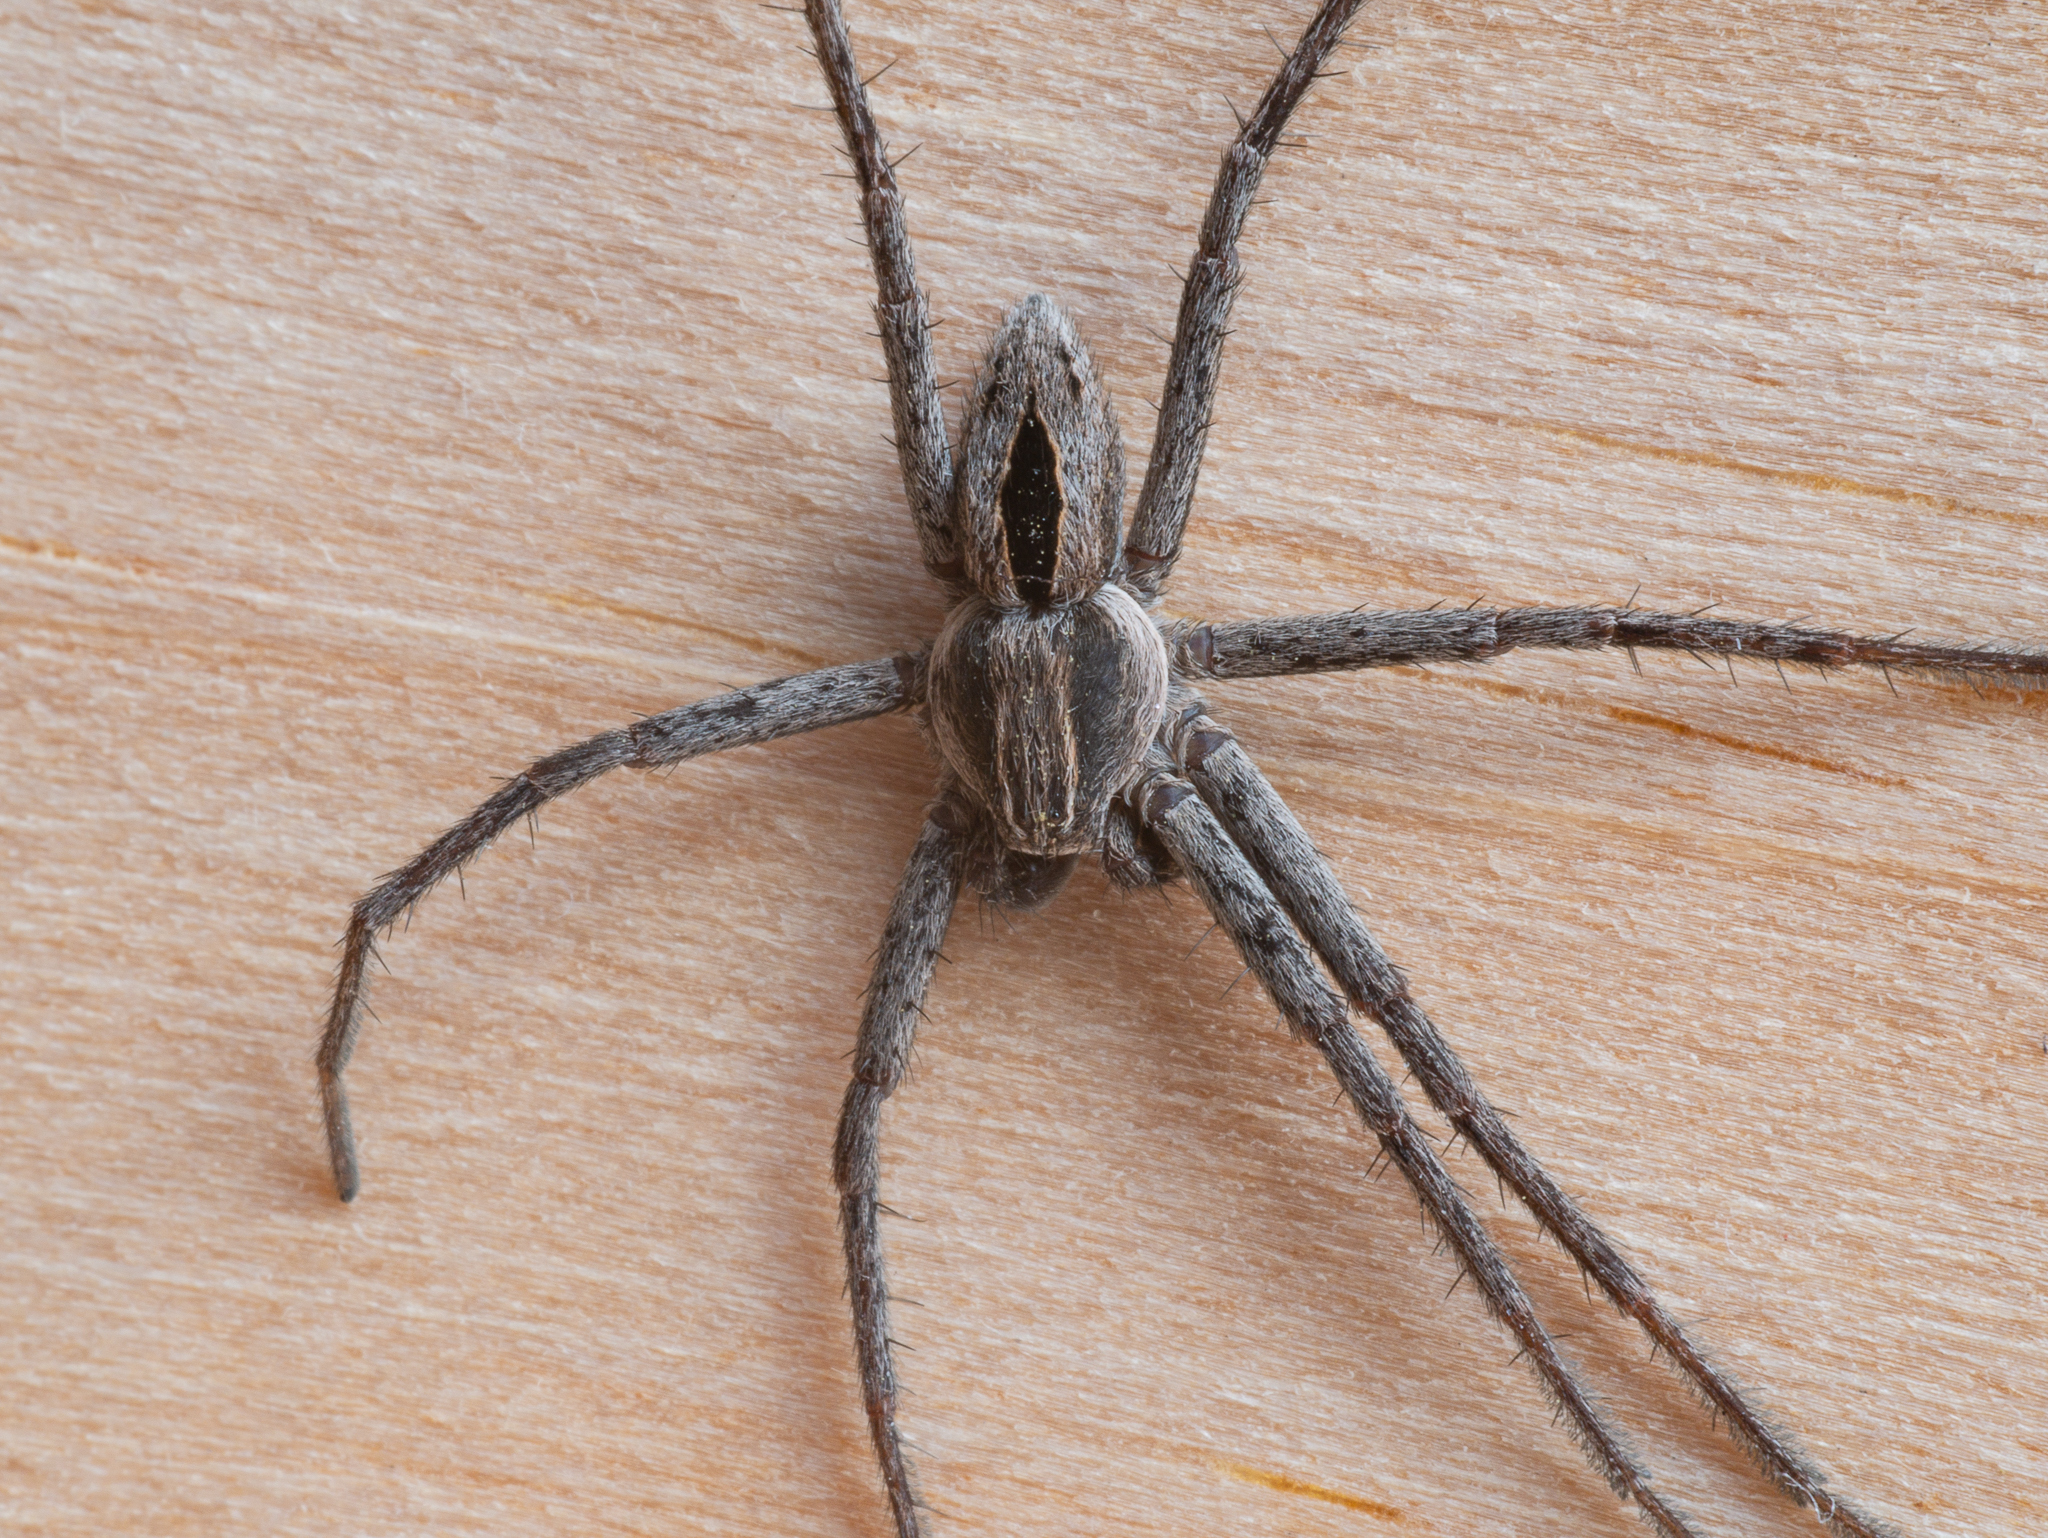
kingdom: Animalia
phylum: Arthropoda
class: Arachnida
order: Araneae
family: Philodromidae
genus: Thanatus
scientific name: Thanatus formicinus
